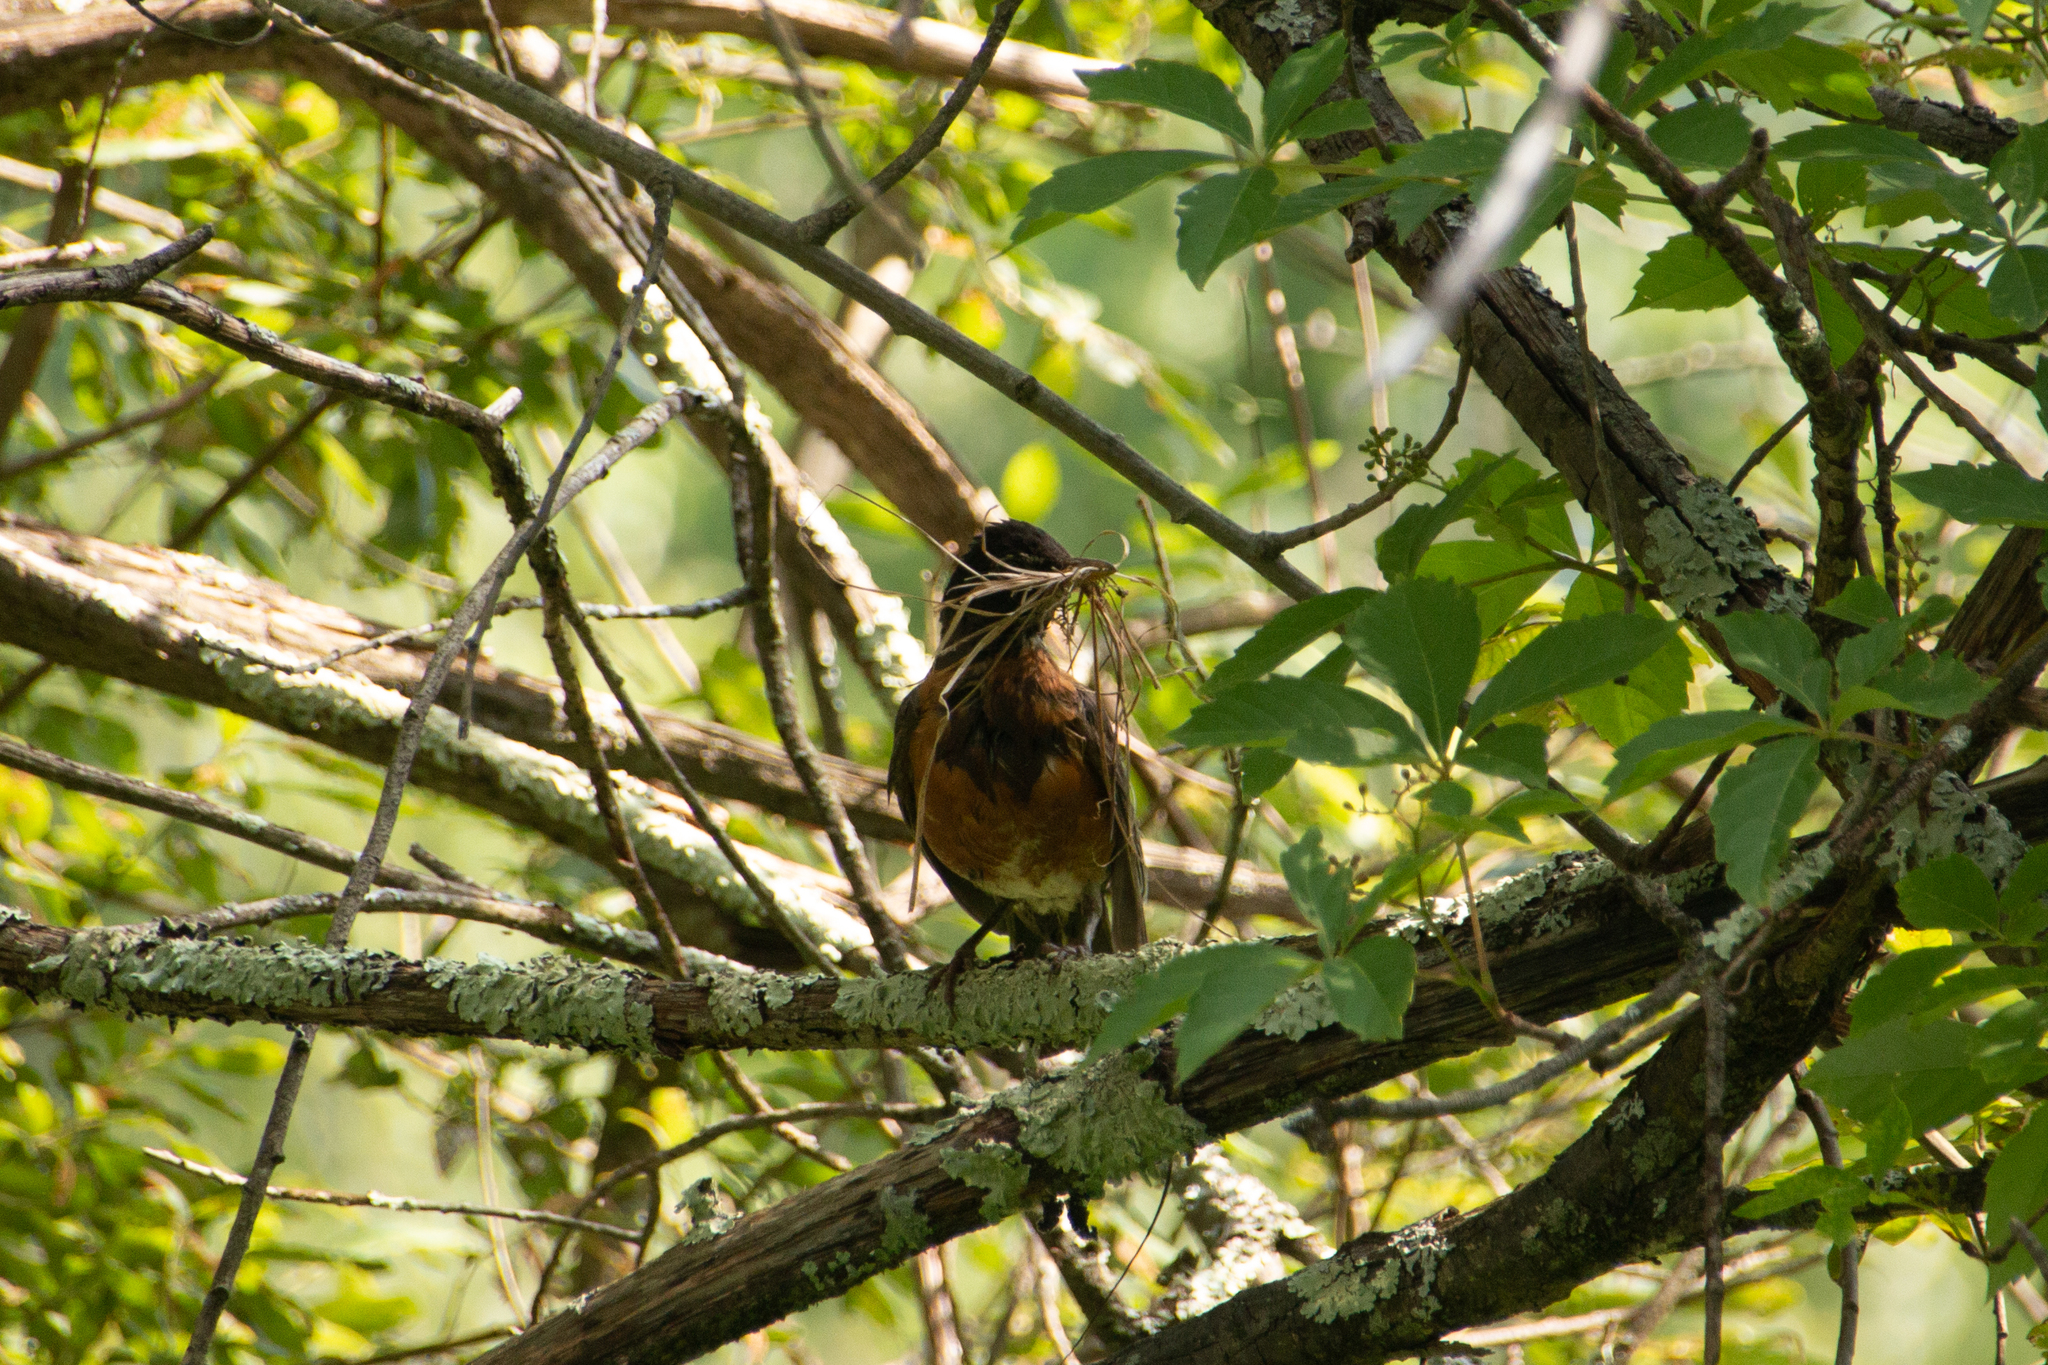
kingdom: Animalia
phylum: Chordata
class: Aves
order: Passeriformes
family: Turdidae
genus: Turdus
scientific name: Turdus migratorius
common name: American robin
